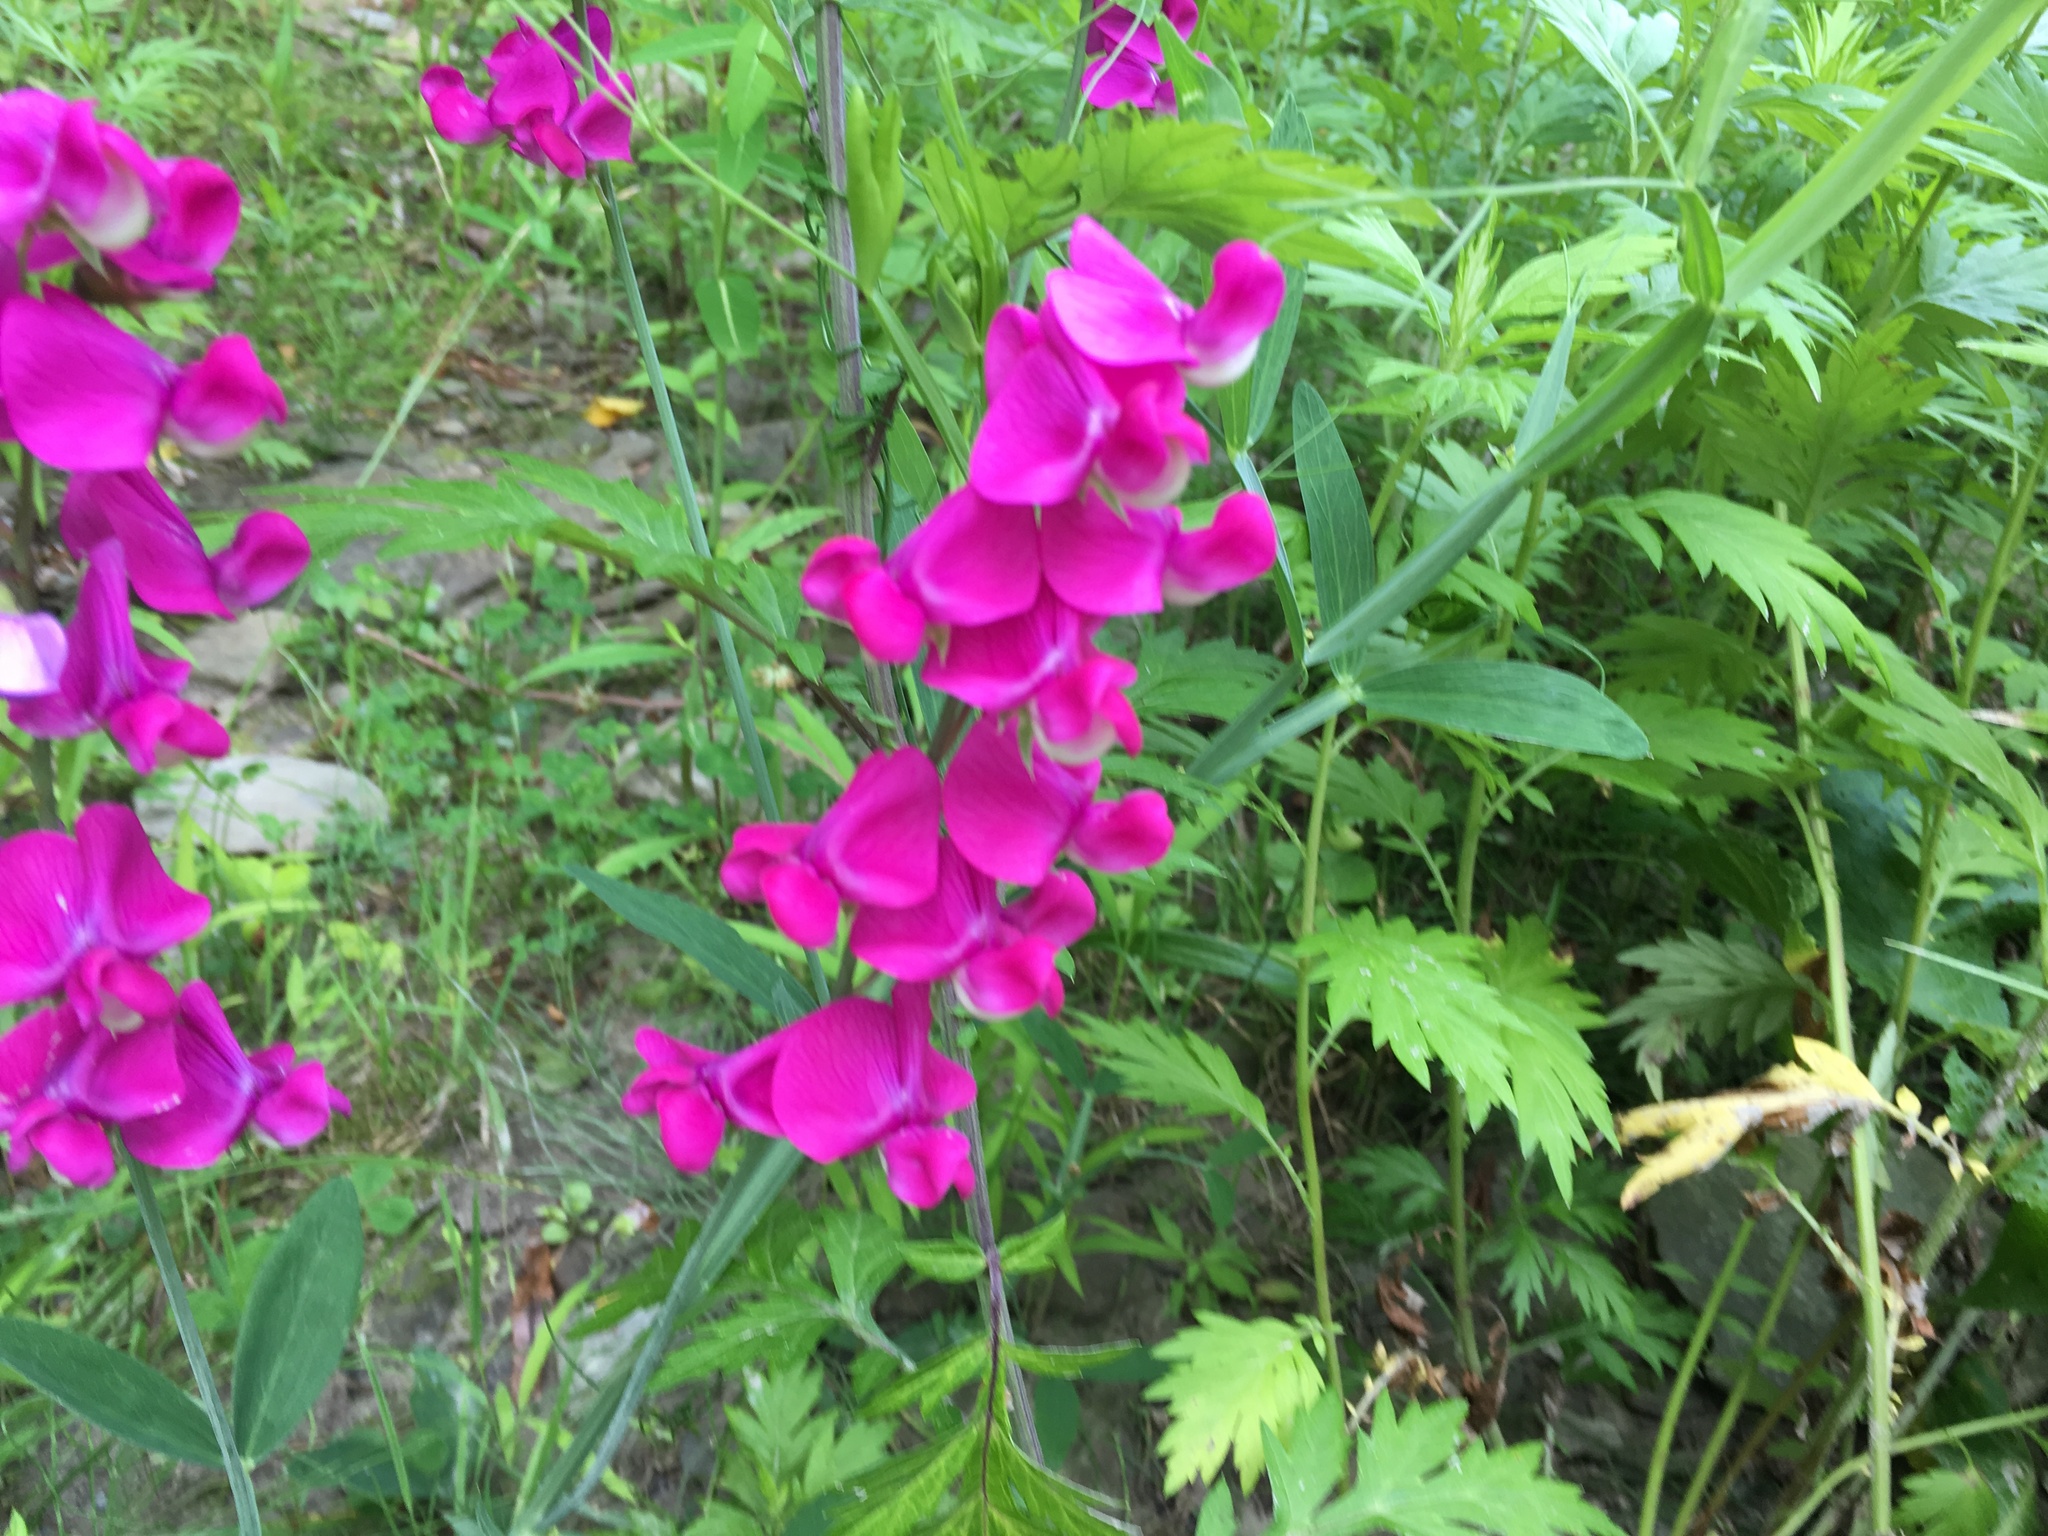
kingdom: Plantae
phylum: Tracheophyta
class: Magnoliopsida
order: Fabales
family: Fabaceae
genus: Lathyrus
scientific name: Lathyrus latifolius
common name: Perennial pea
